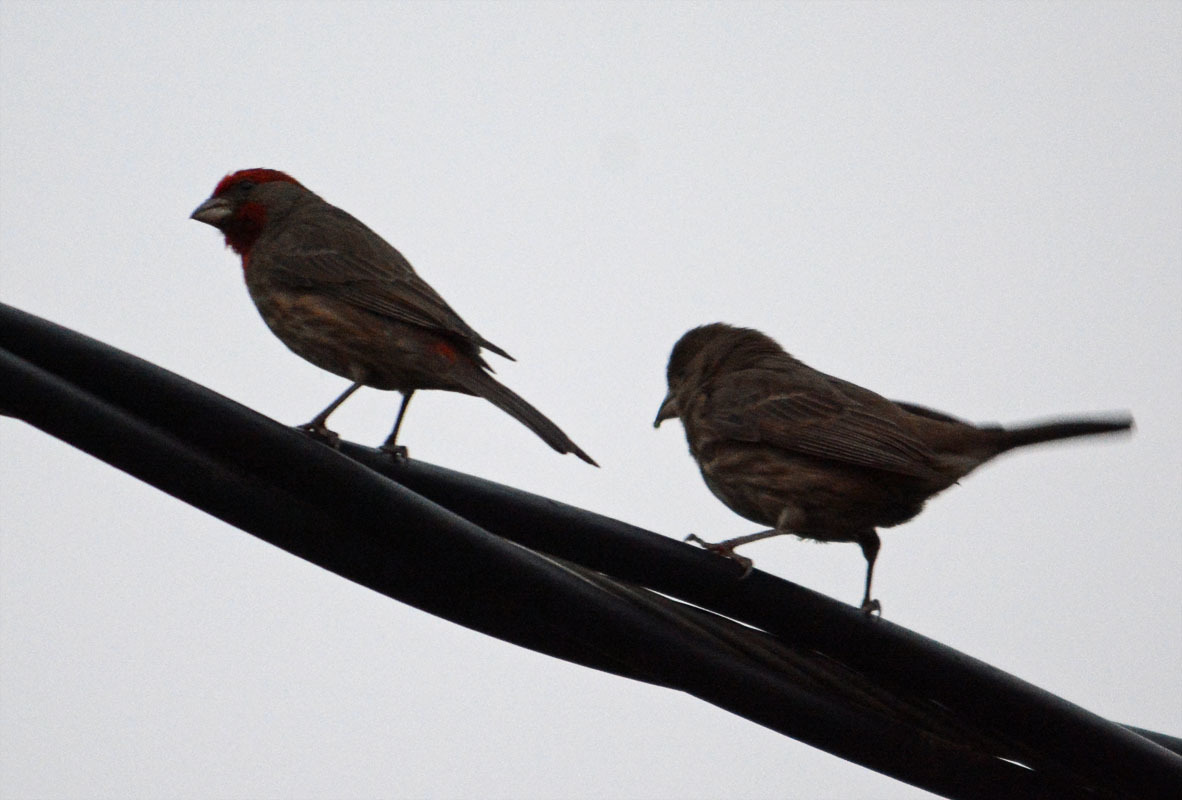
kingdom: Animalia
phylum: Chordata
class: Aves
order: Passeriformes
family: Fringillidae
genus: Haemorhous
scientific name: Haemorhous mexicanus
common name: House finch
